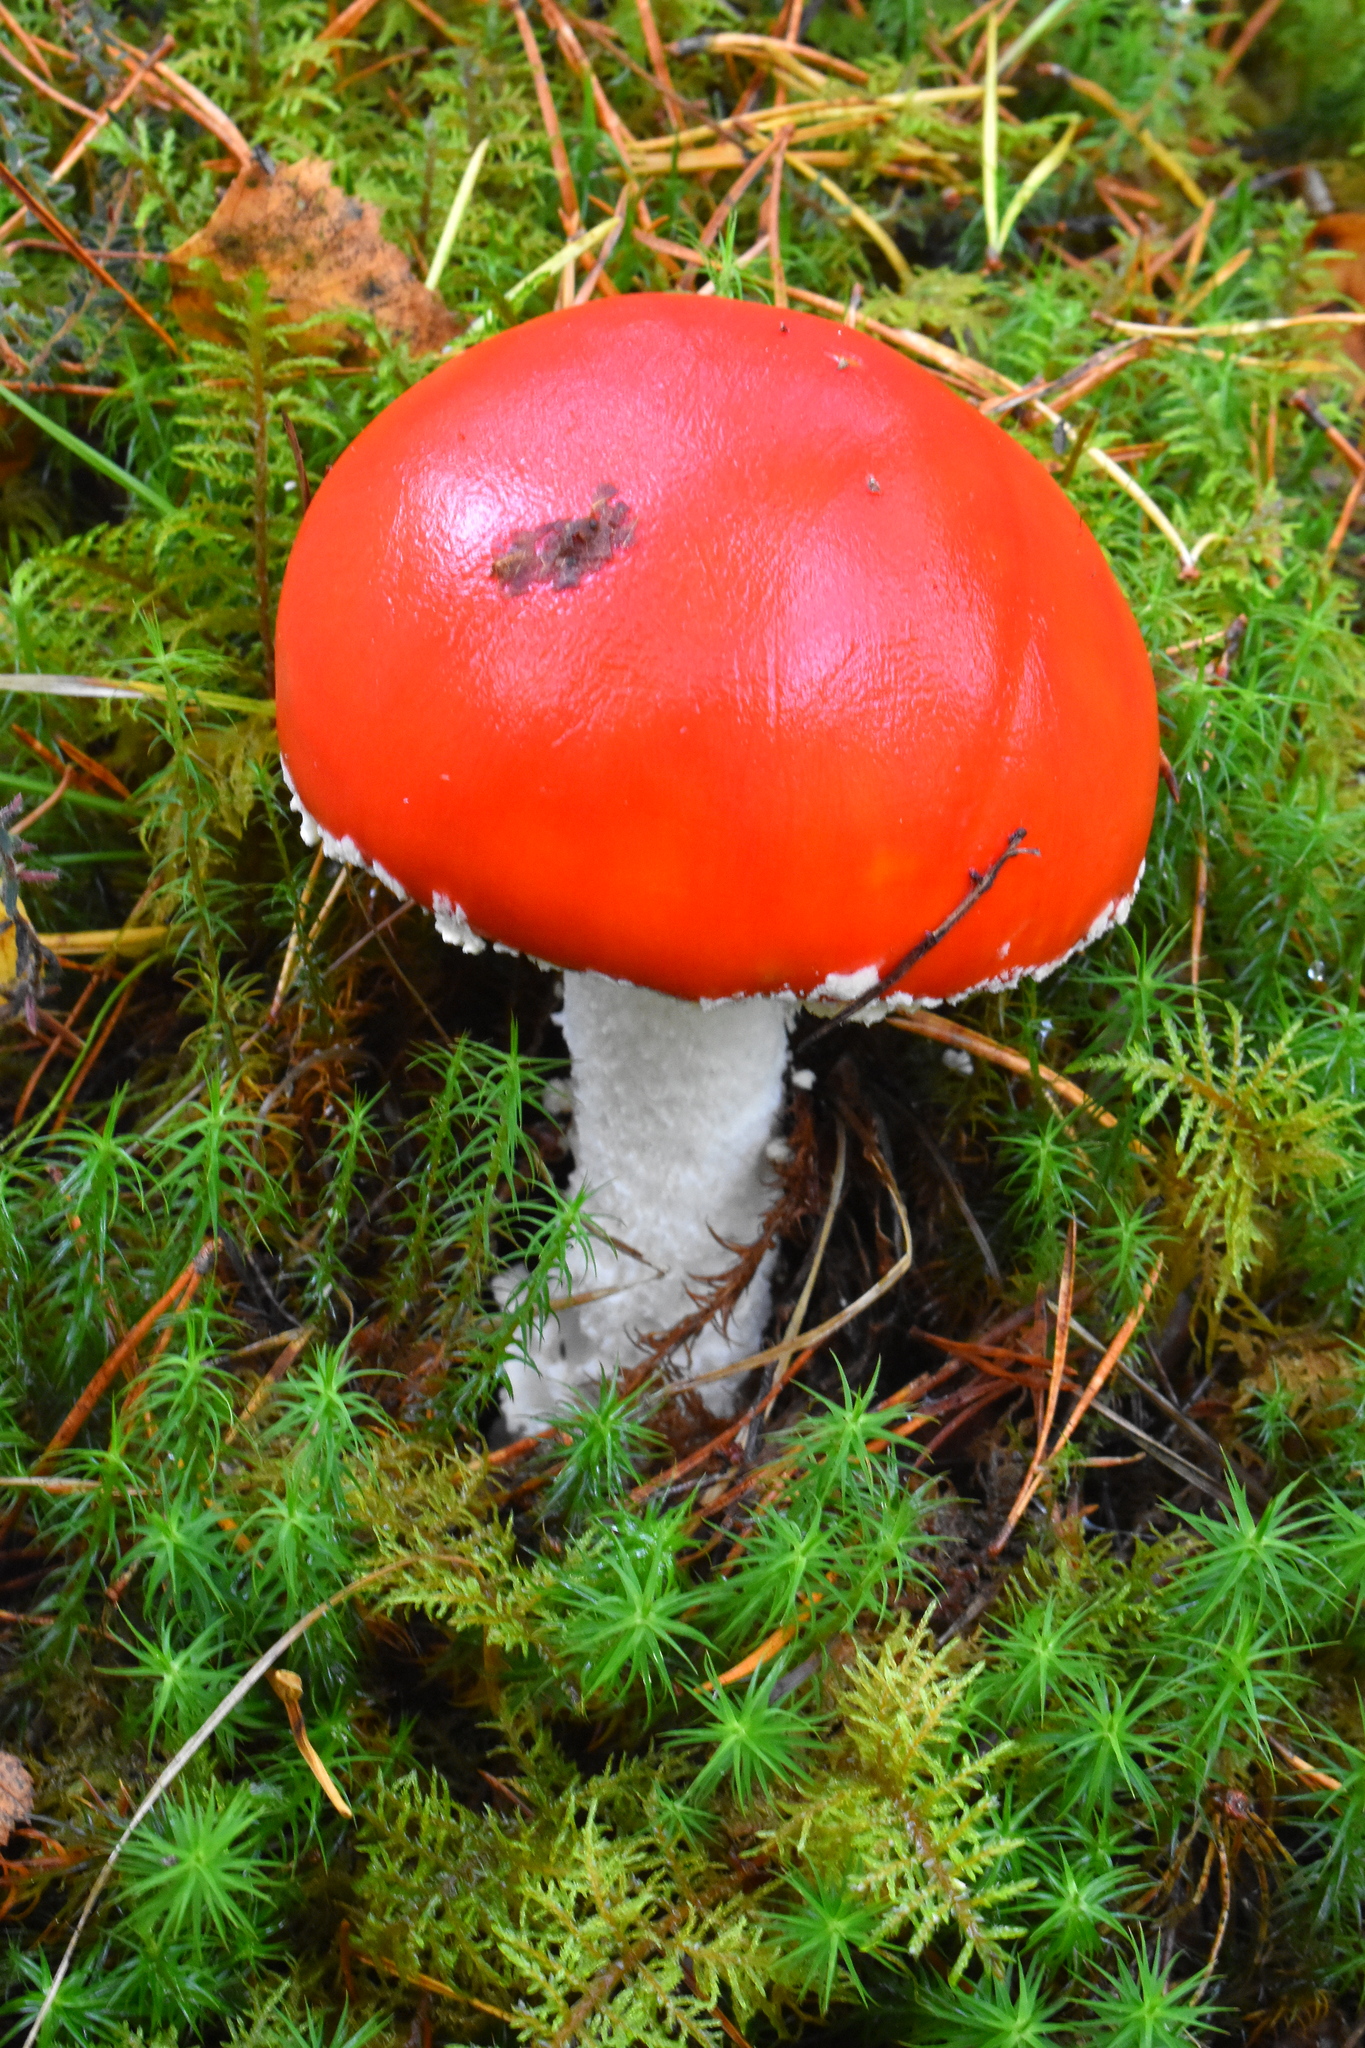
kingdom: Fungi
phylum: Basidiomycota
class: Agaricomycetes
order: Agaricales
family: Amanitaceae
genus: Amanita
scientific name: Amanita muscaria
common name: Fly agaric
